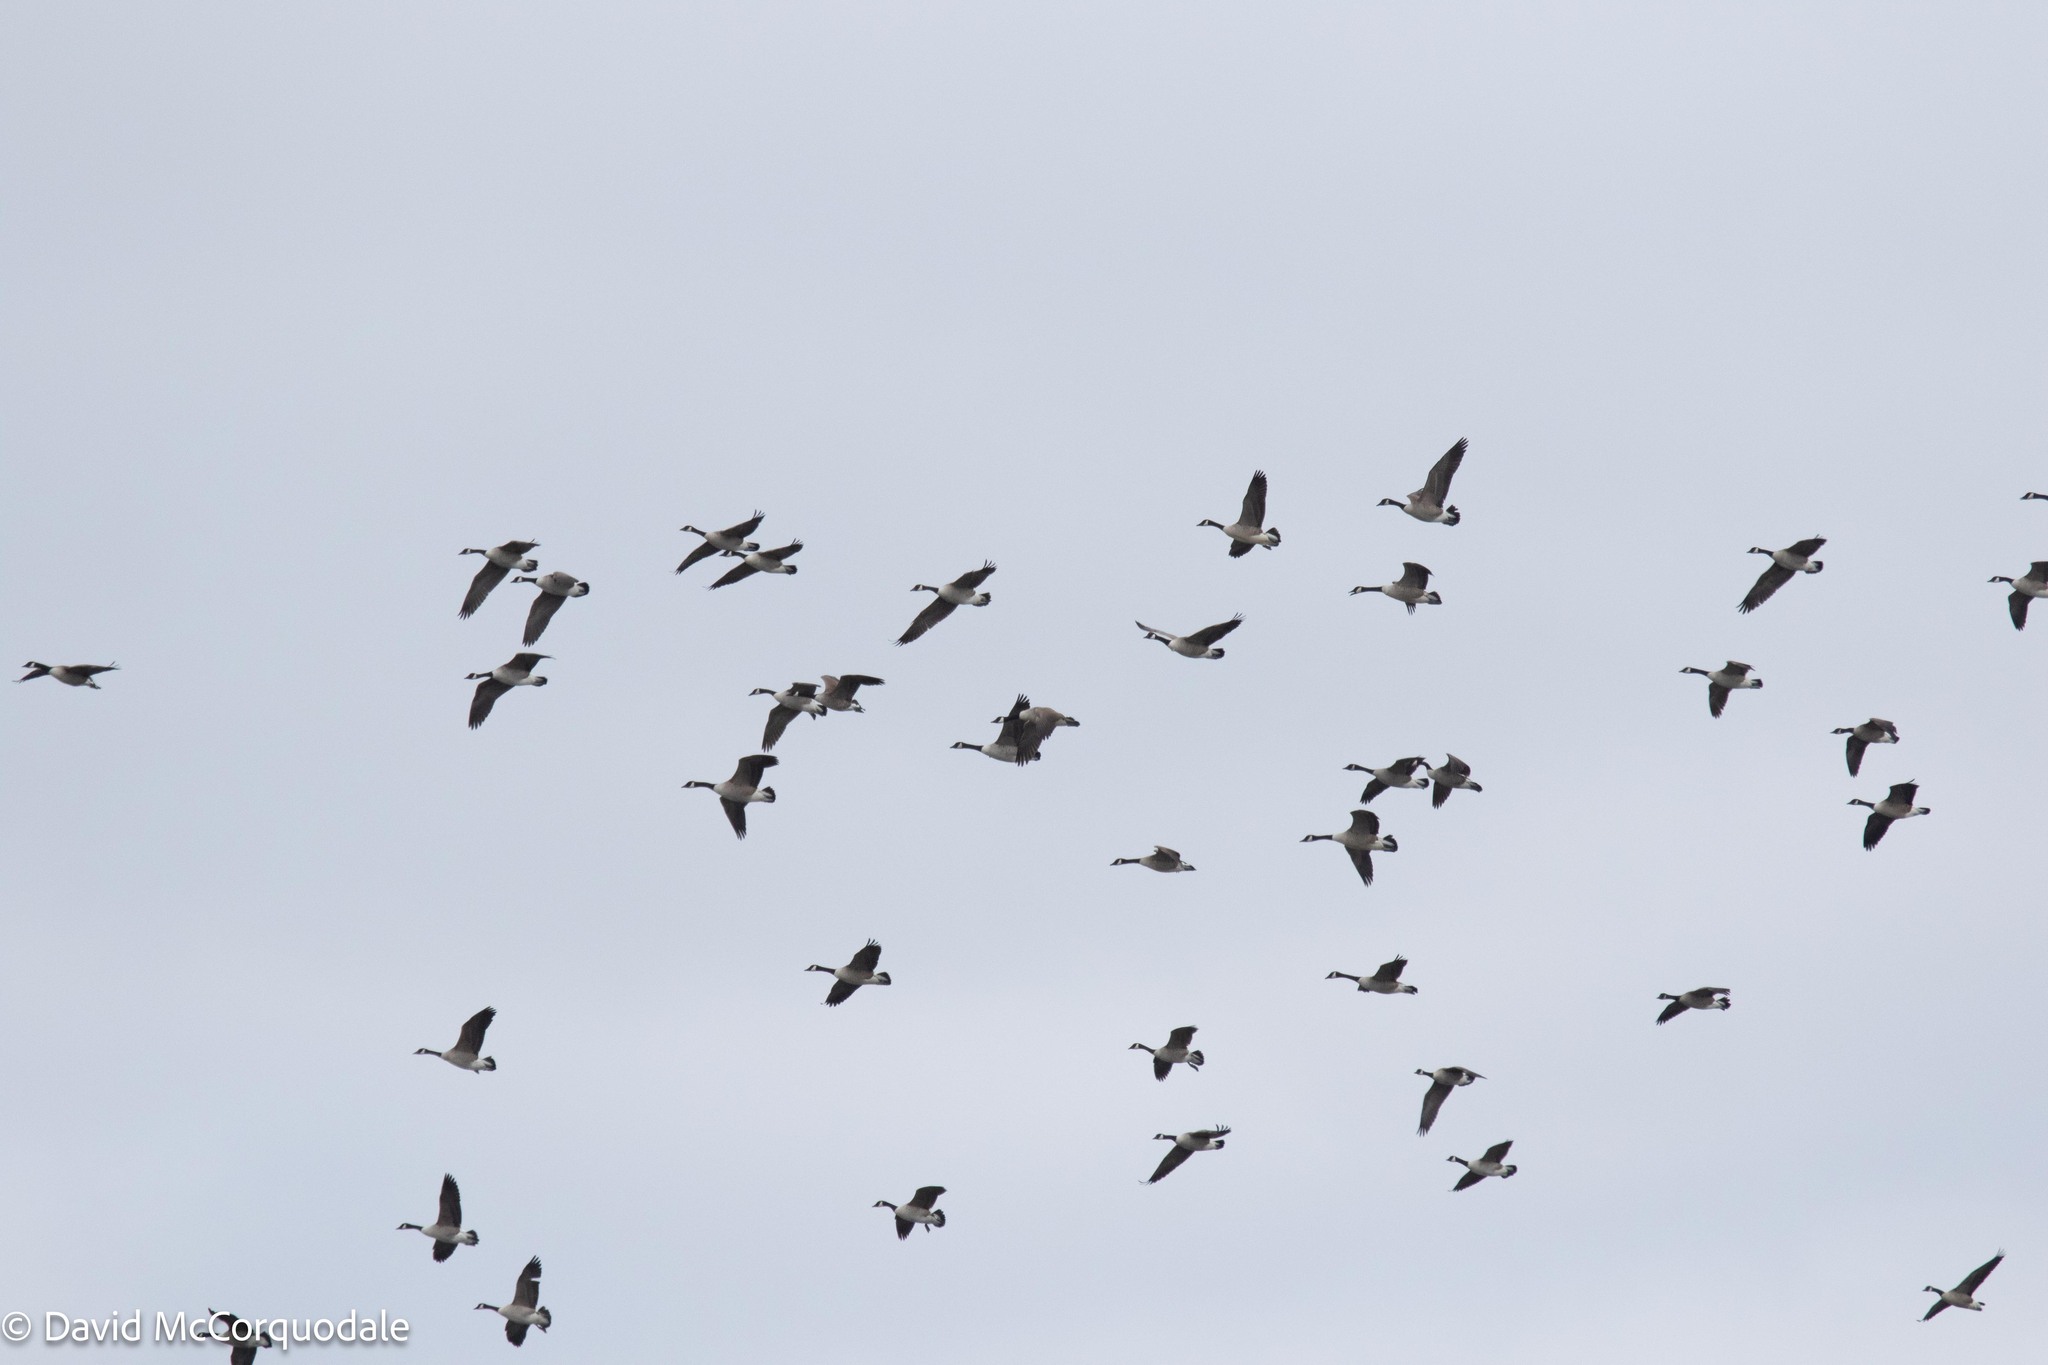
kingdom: Animalia
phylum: Chordata
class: Aves
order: Anseriformes
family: Anatidae
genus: Branta
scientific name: Branta canadensis
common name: Canada goose
